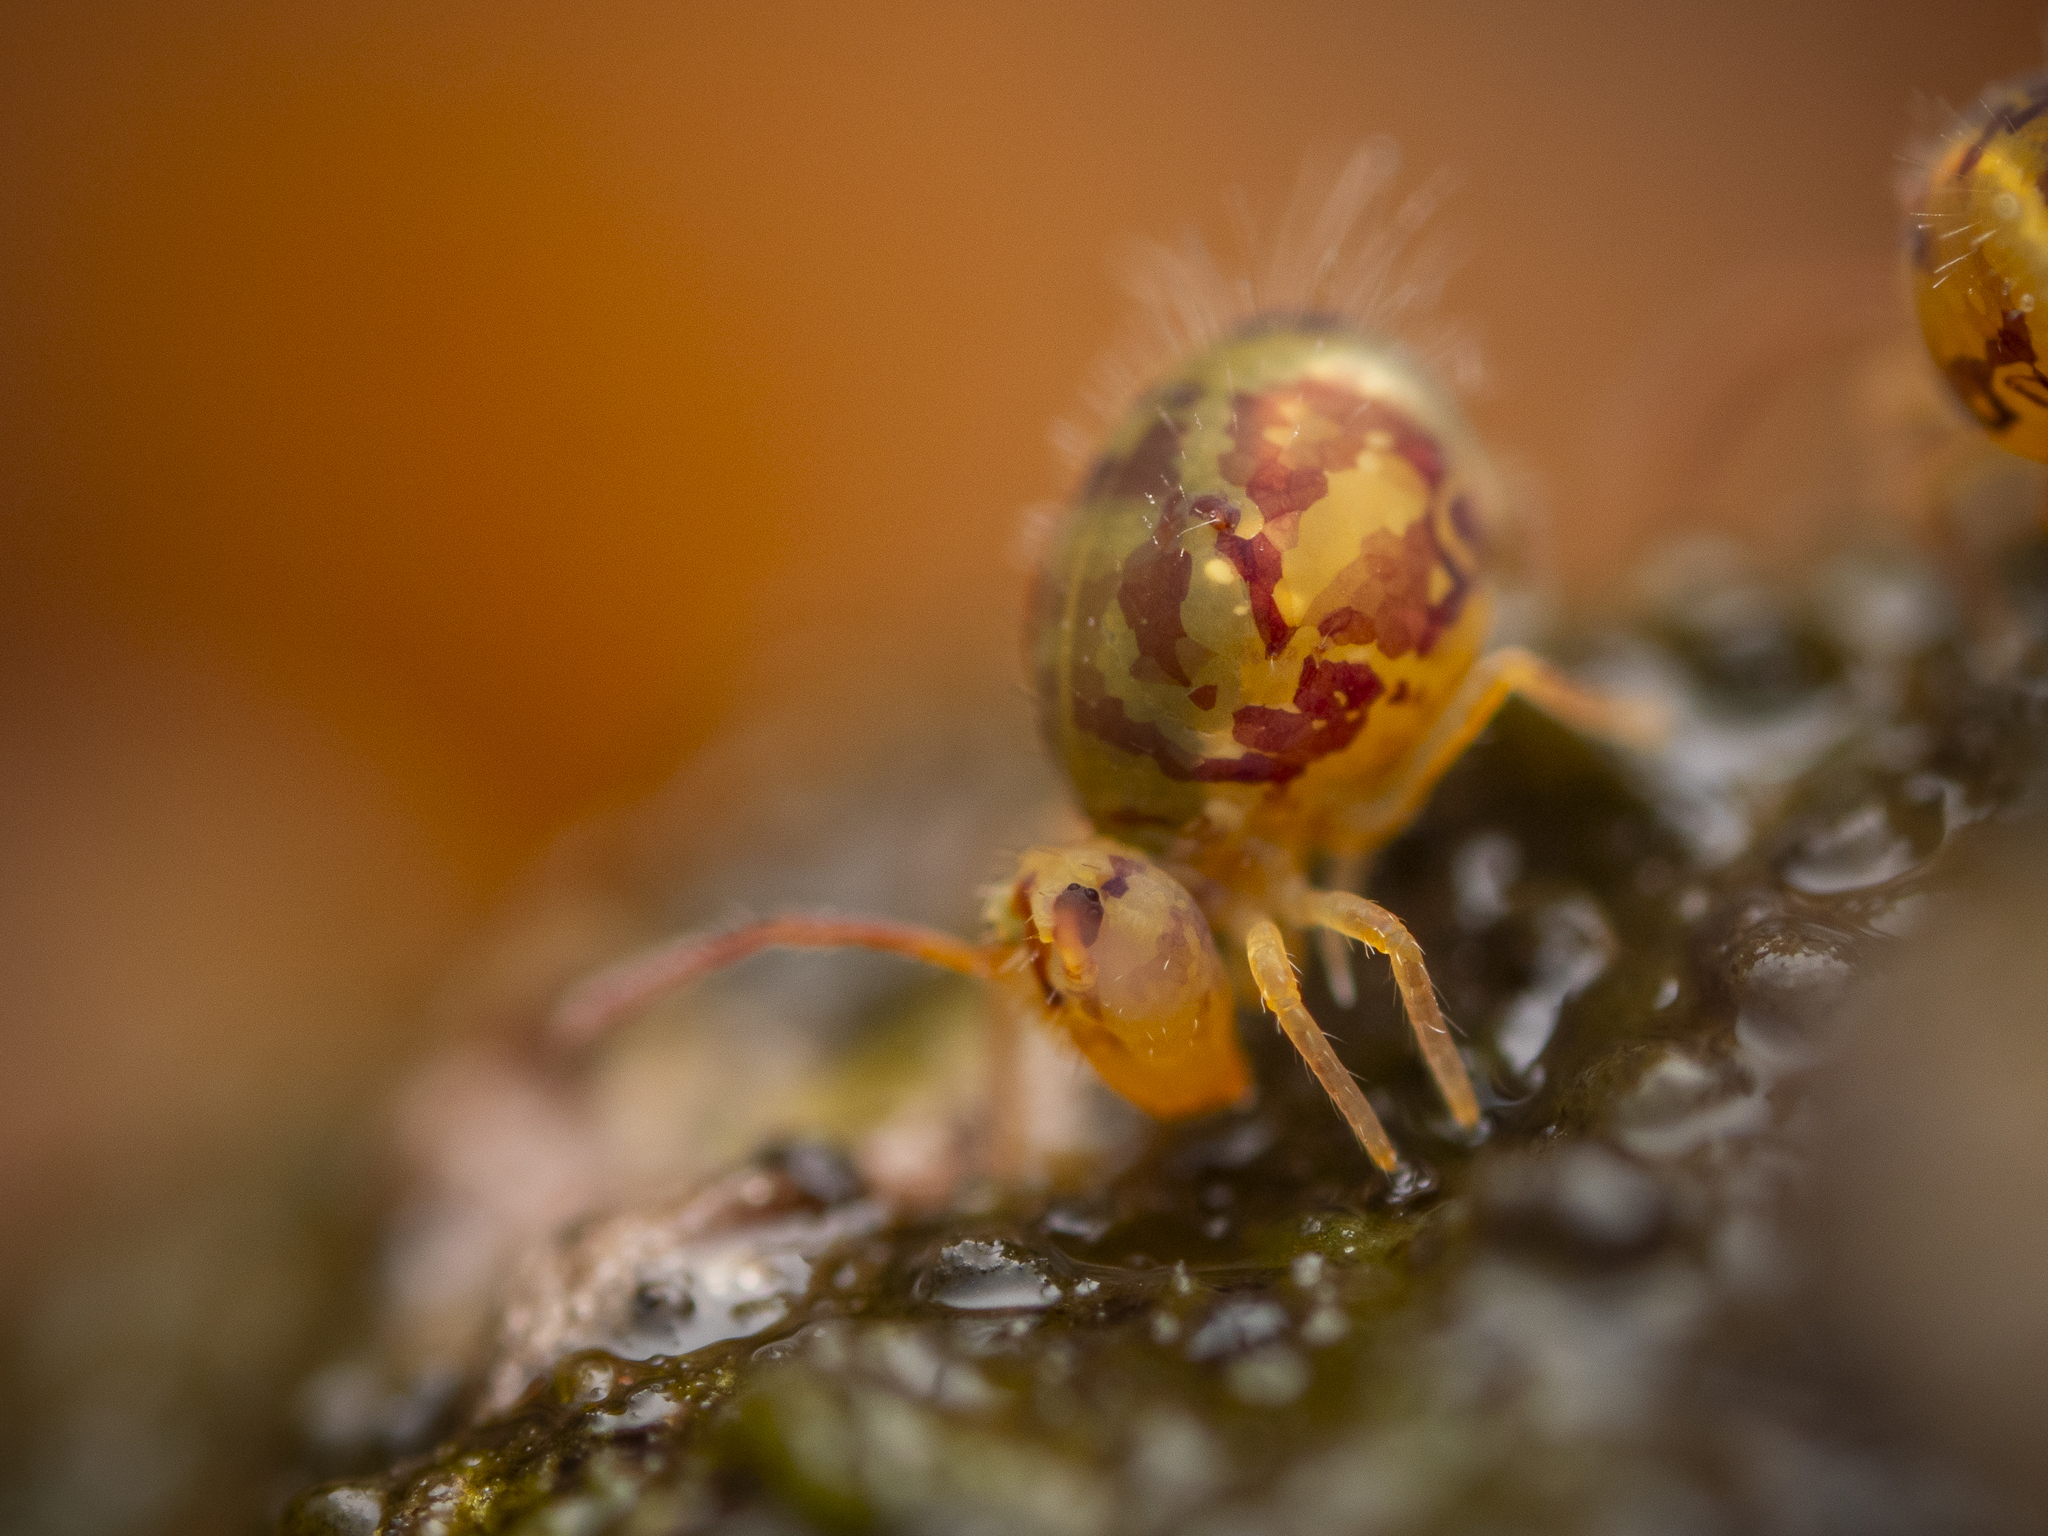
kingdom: Animalia
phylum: Arthropoda
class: Collembola
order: Symphypleona
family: Dicyrtomidae
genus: Dicyrtomina
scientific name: Dicyrtomina ornata
